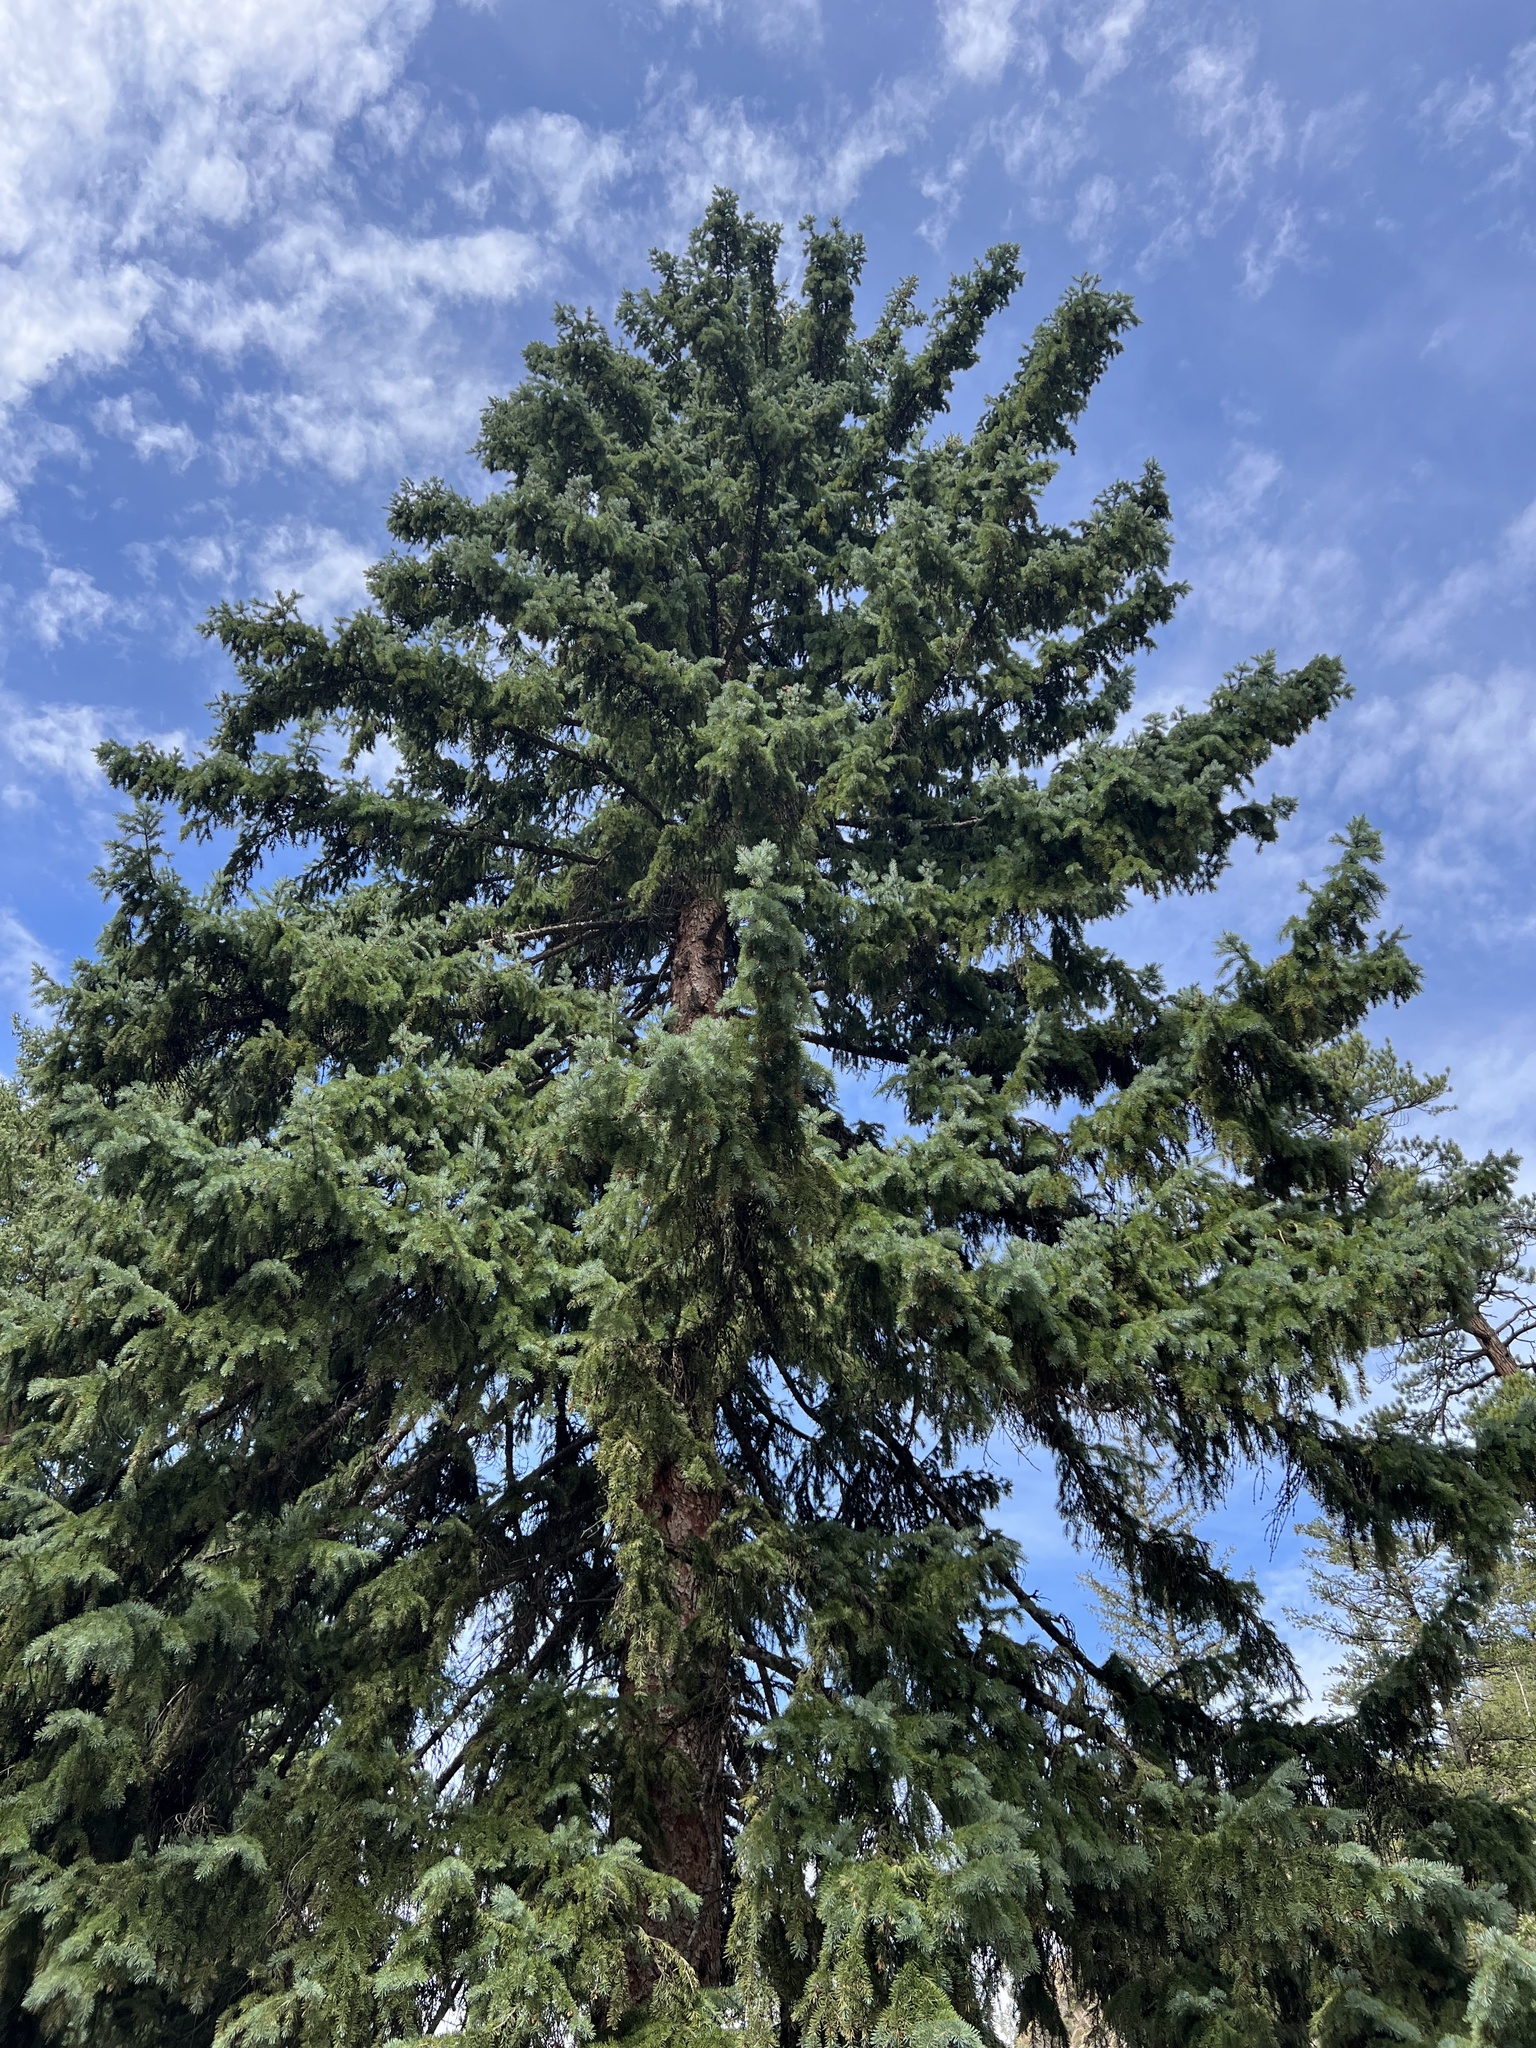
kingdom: Plantae
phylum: Tracheophyta
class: Pinopsida
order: Pinales
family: Pinaceae
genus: Pseudotsuga
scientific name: Pseudotsuga menziesii
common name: Douglas fir
